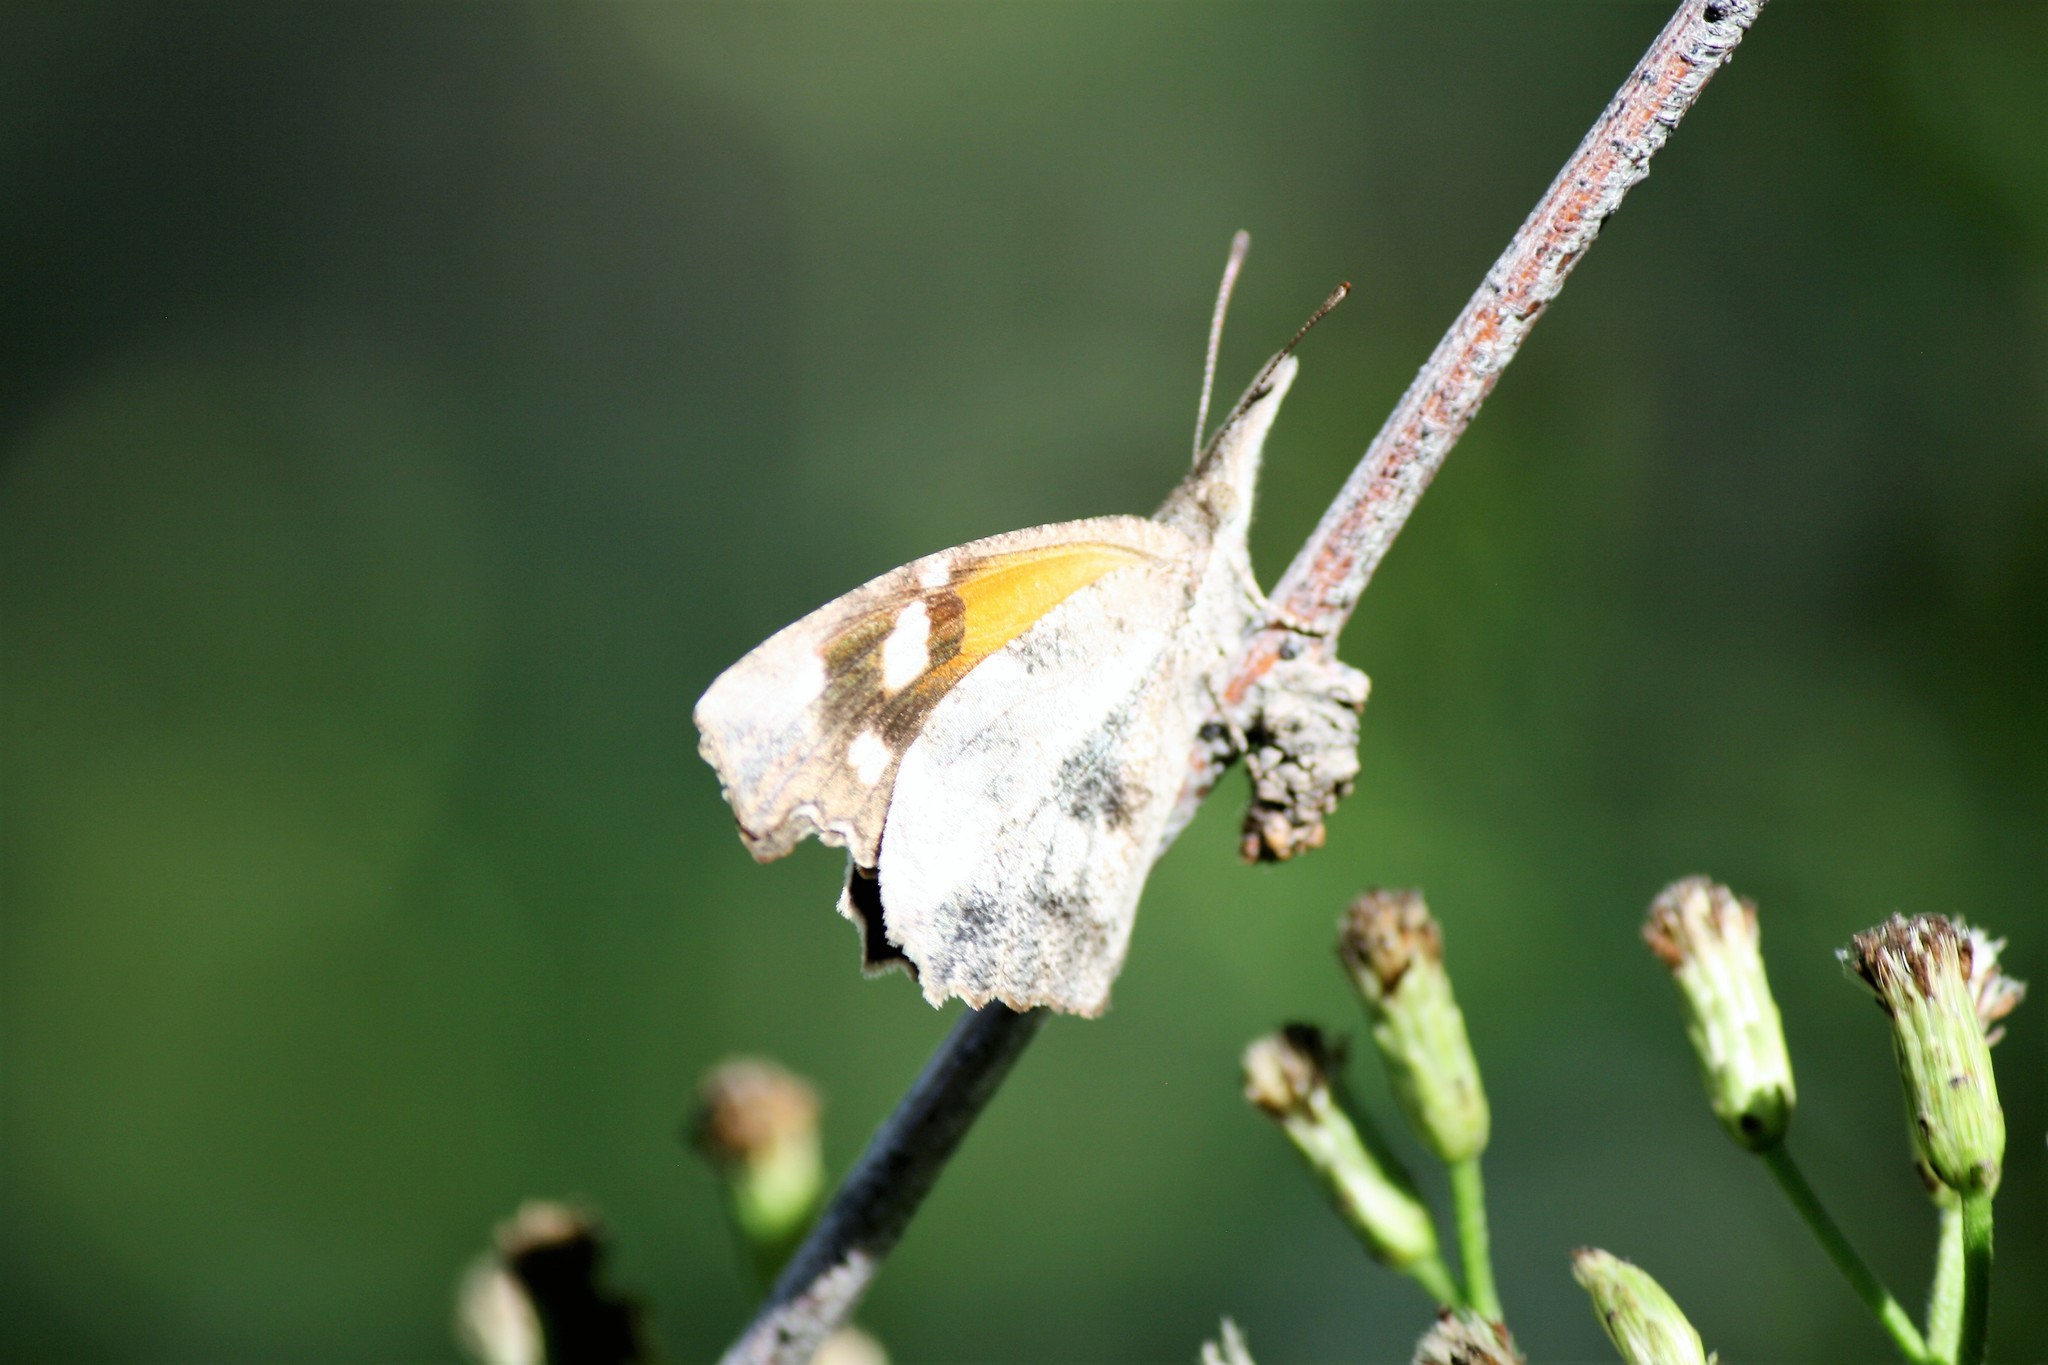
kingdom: Animalia
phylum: Arthropoda
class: Insecta
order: Lepidoptera
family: Nymphalidae
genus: Libytheana
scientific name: Libytheana carinenta
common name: American snout
